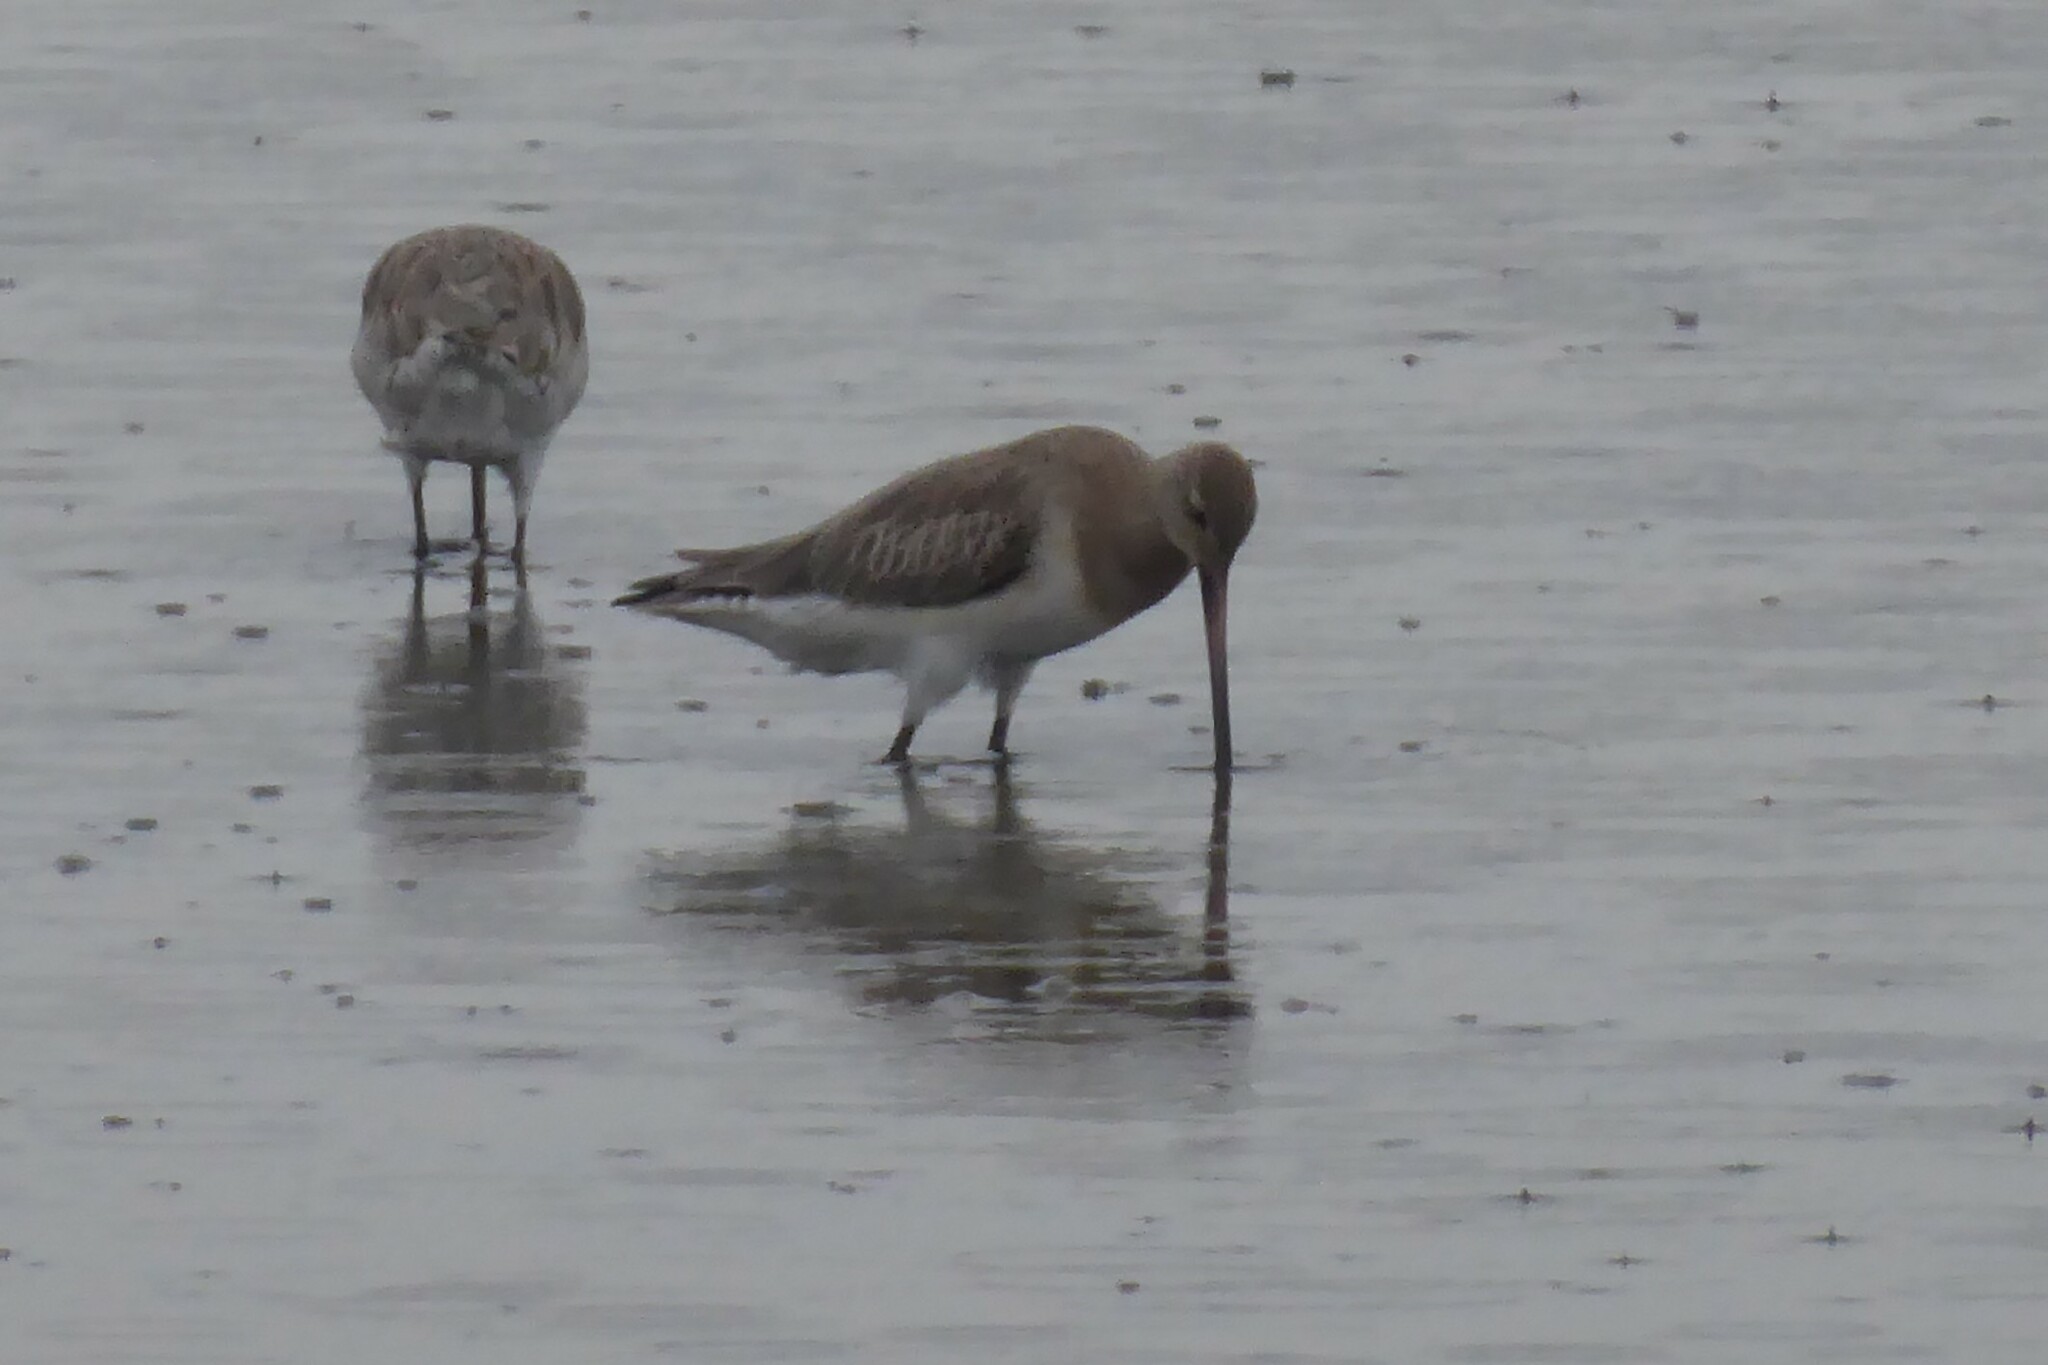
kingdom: Animalia
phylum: Chordata
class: Aves
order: Charadriiformes
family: Scolopacidae
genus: Limosa
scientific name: Limosa lapponica
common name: Bar-tailed godwit
